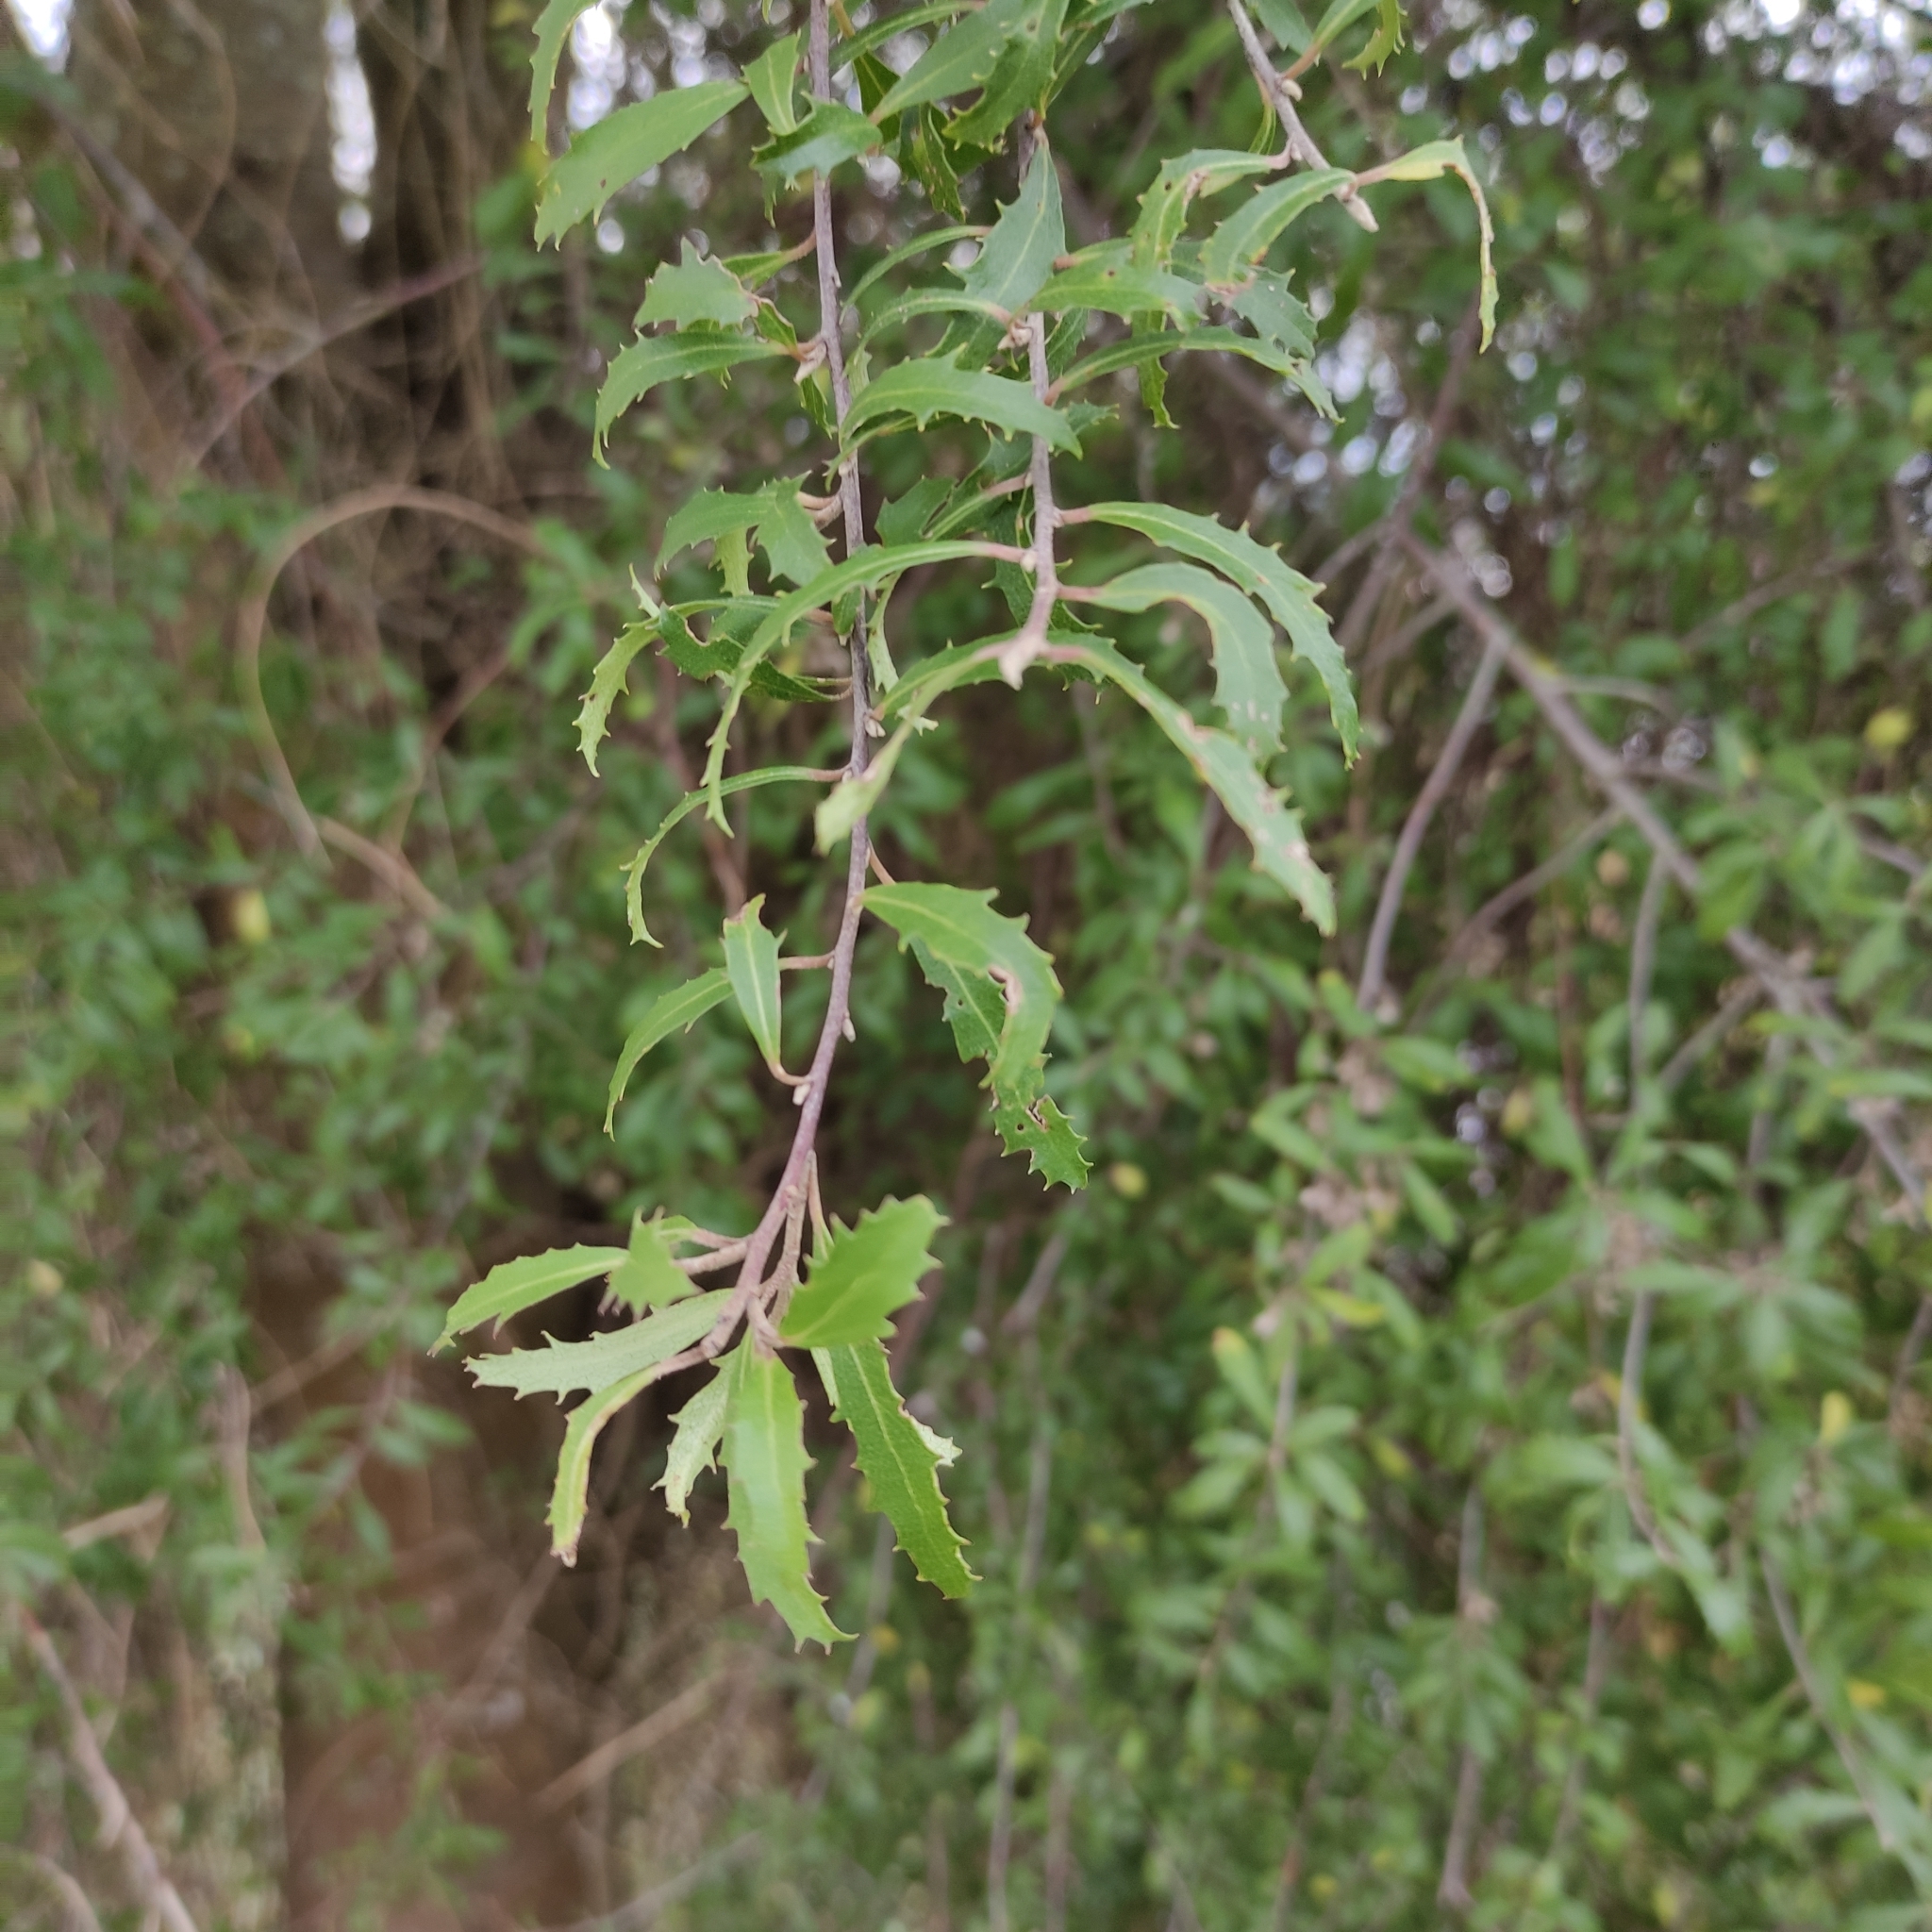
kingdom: Plantae
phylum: Tracheophyta
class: Magnoliopsida
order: Malvales
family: Malvaceae
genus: Hoheria
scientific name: Hoheria angustifolia
